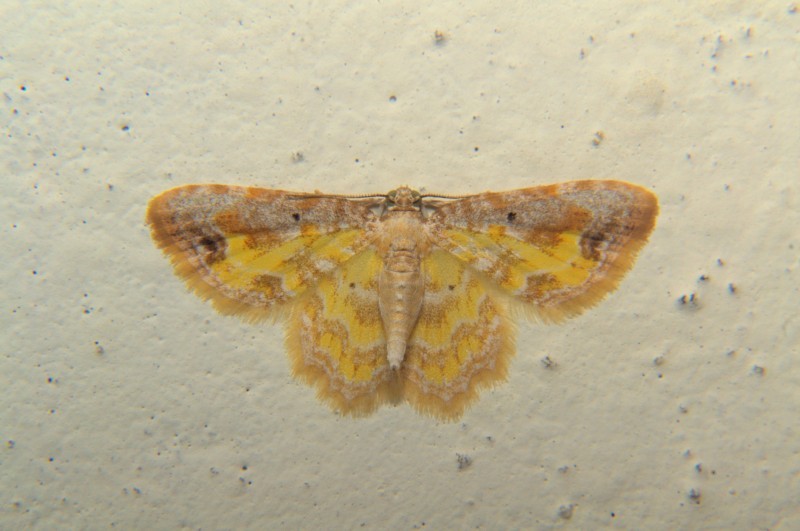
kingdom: Animalia
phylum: Arthropoda
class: Insecta
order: Lepidoptera
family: Geometridae
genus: Acolutha
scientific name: Acolutha pictaria
